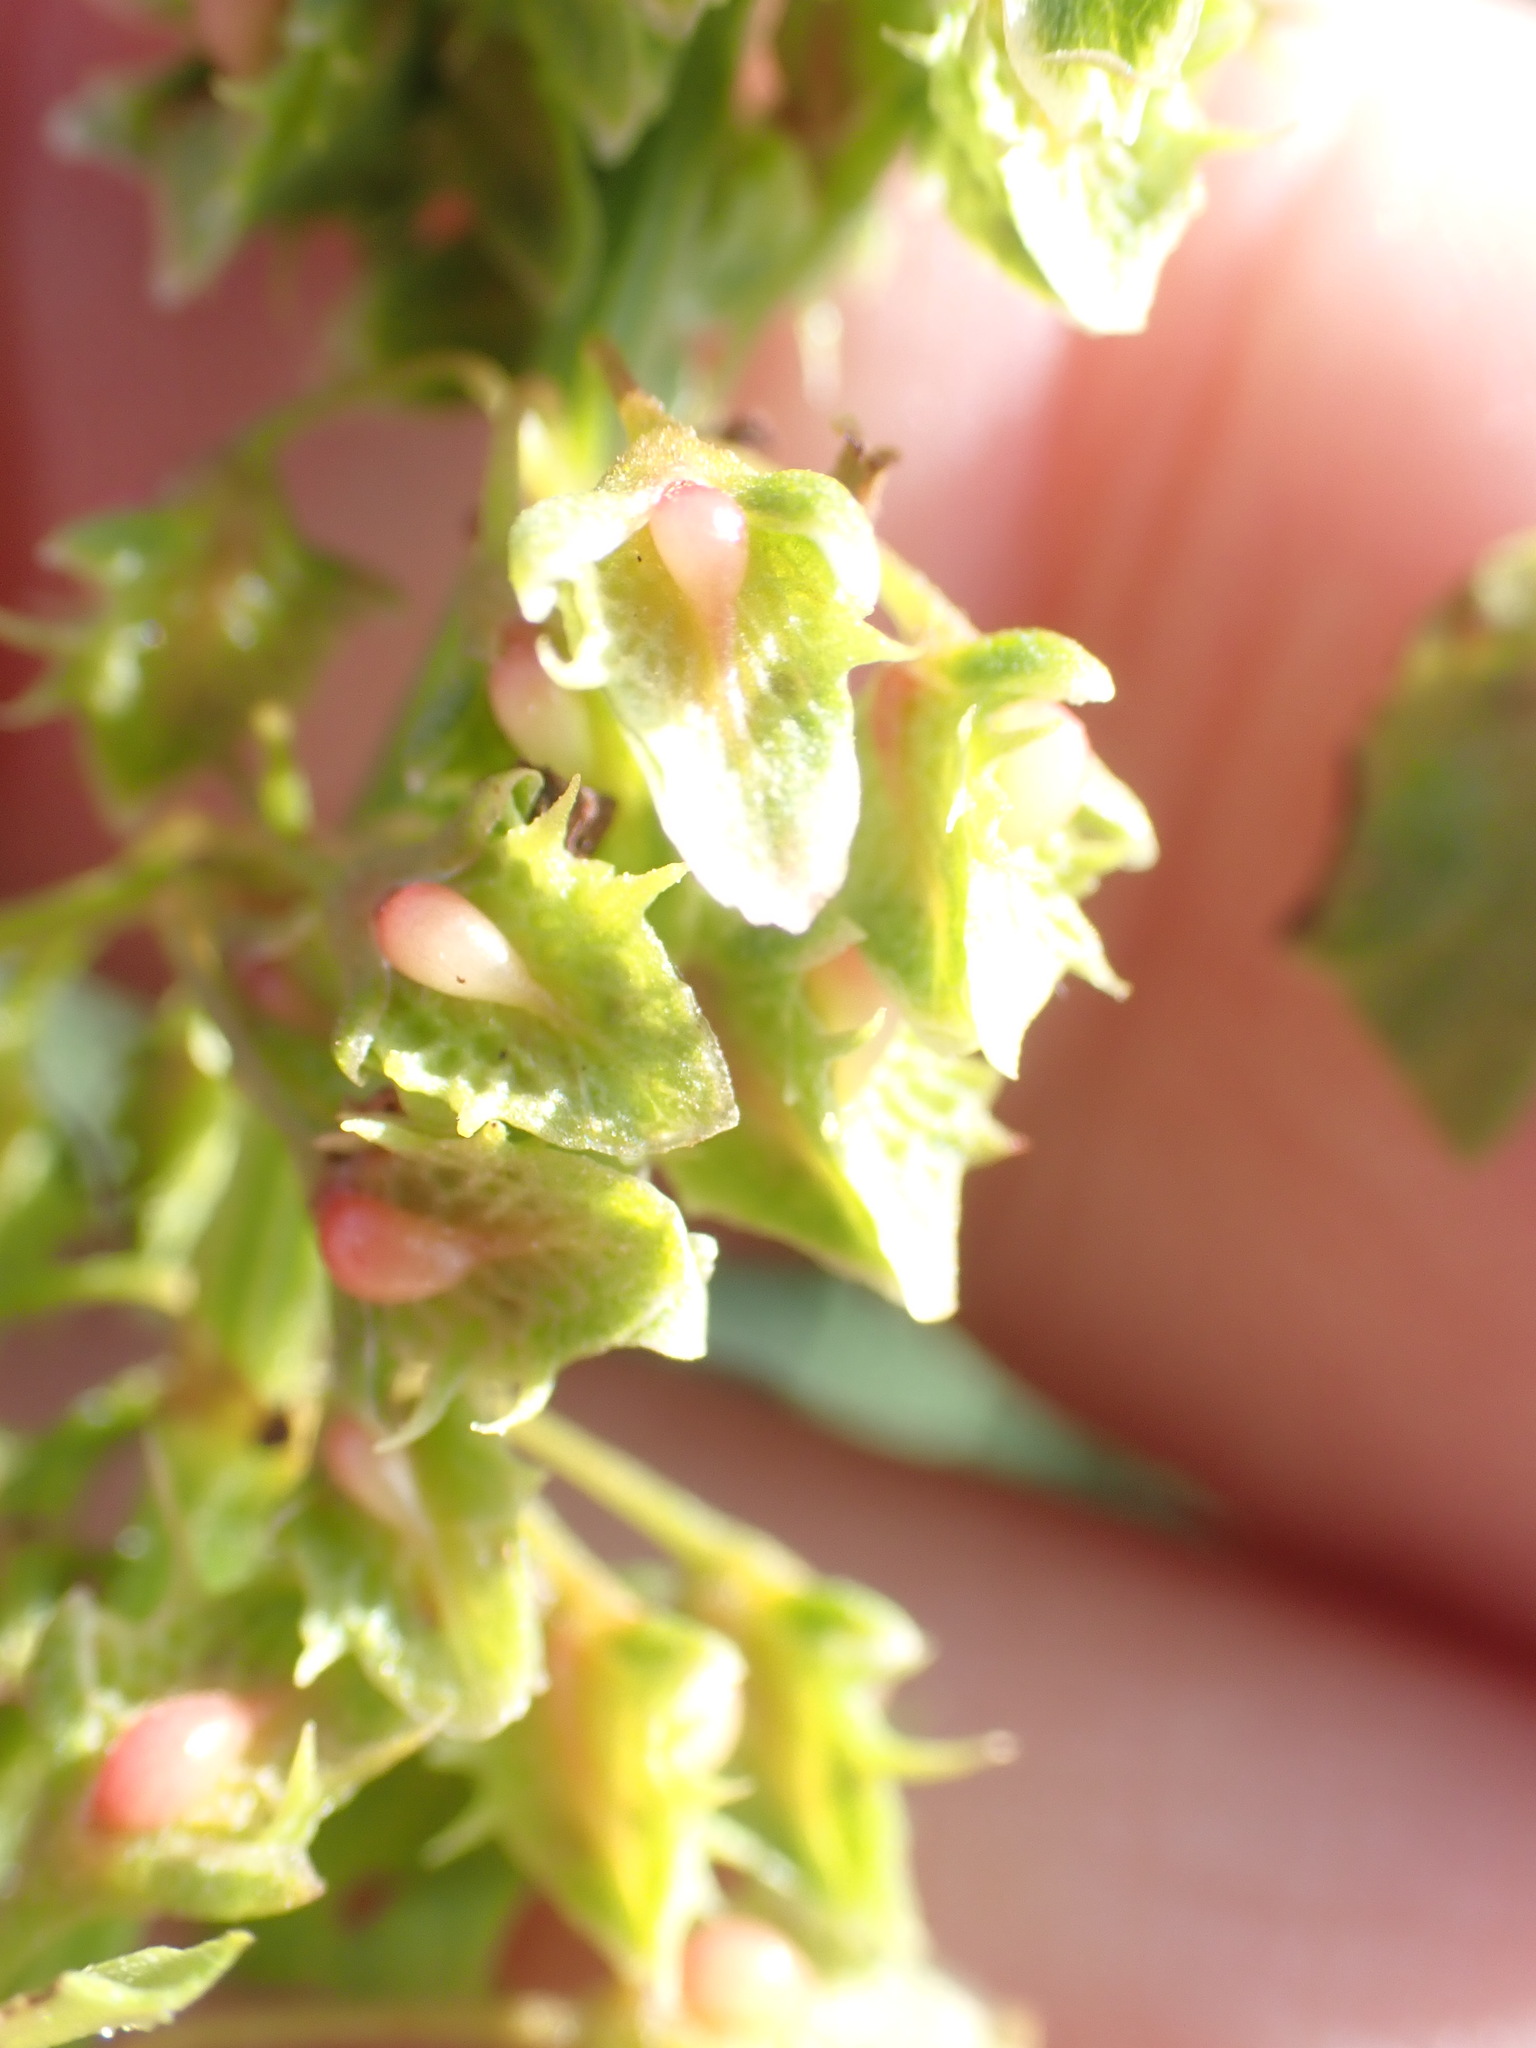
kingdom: Plantae
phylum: Tracheophyta
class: Magnoliopsida
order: Caryophyllales
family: Polygonaceae
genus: Rumex
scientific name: Rumex obtusifolius
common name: Bitter dock
